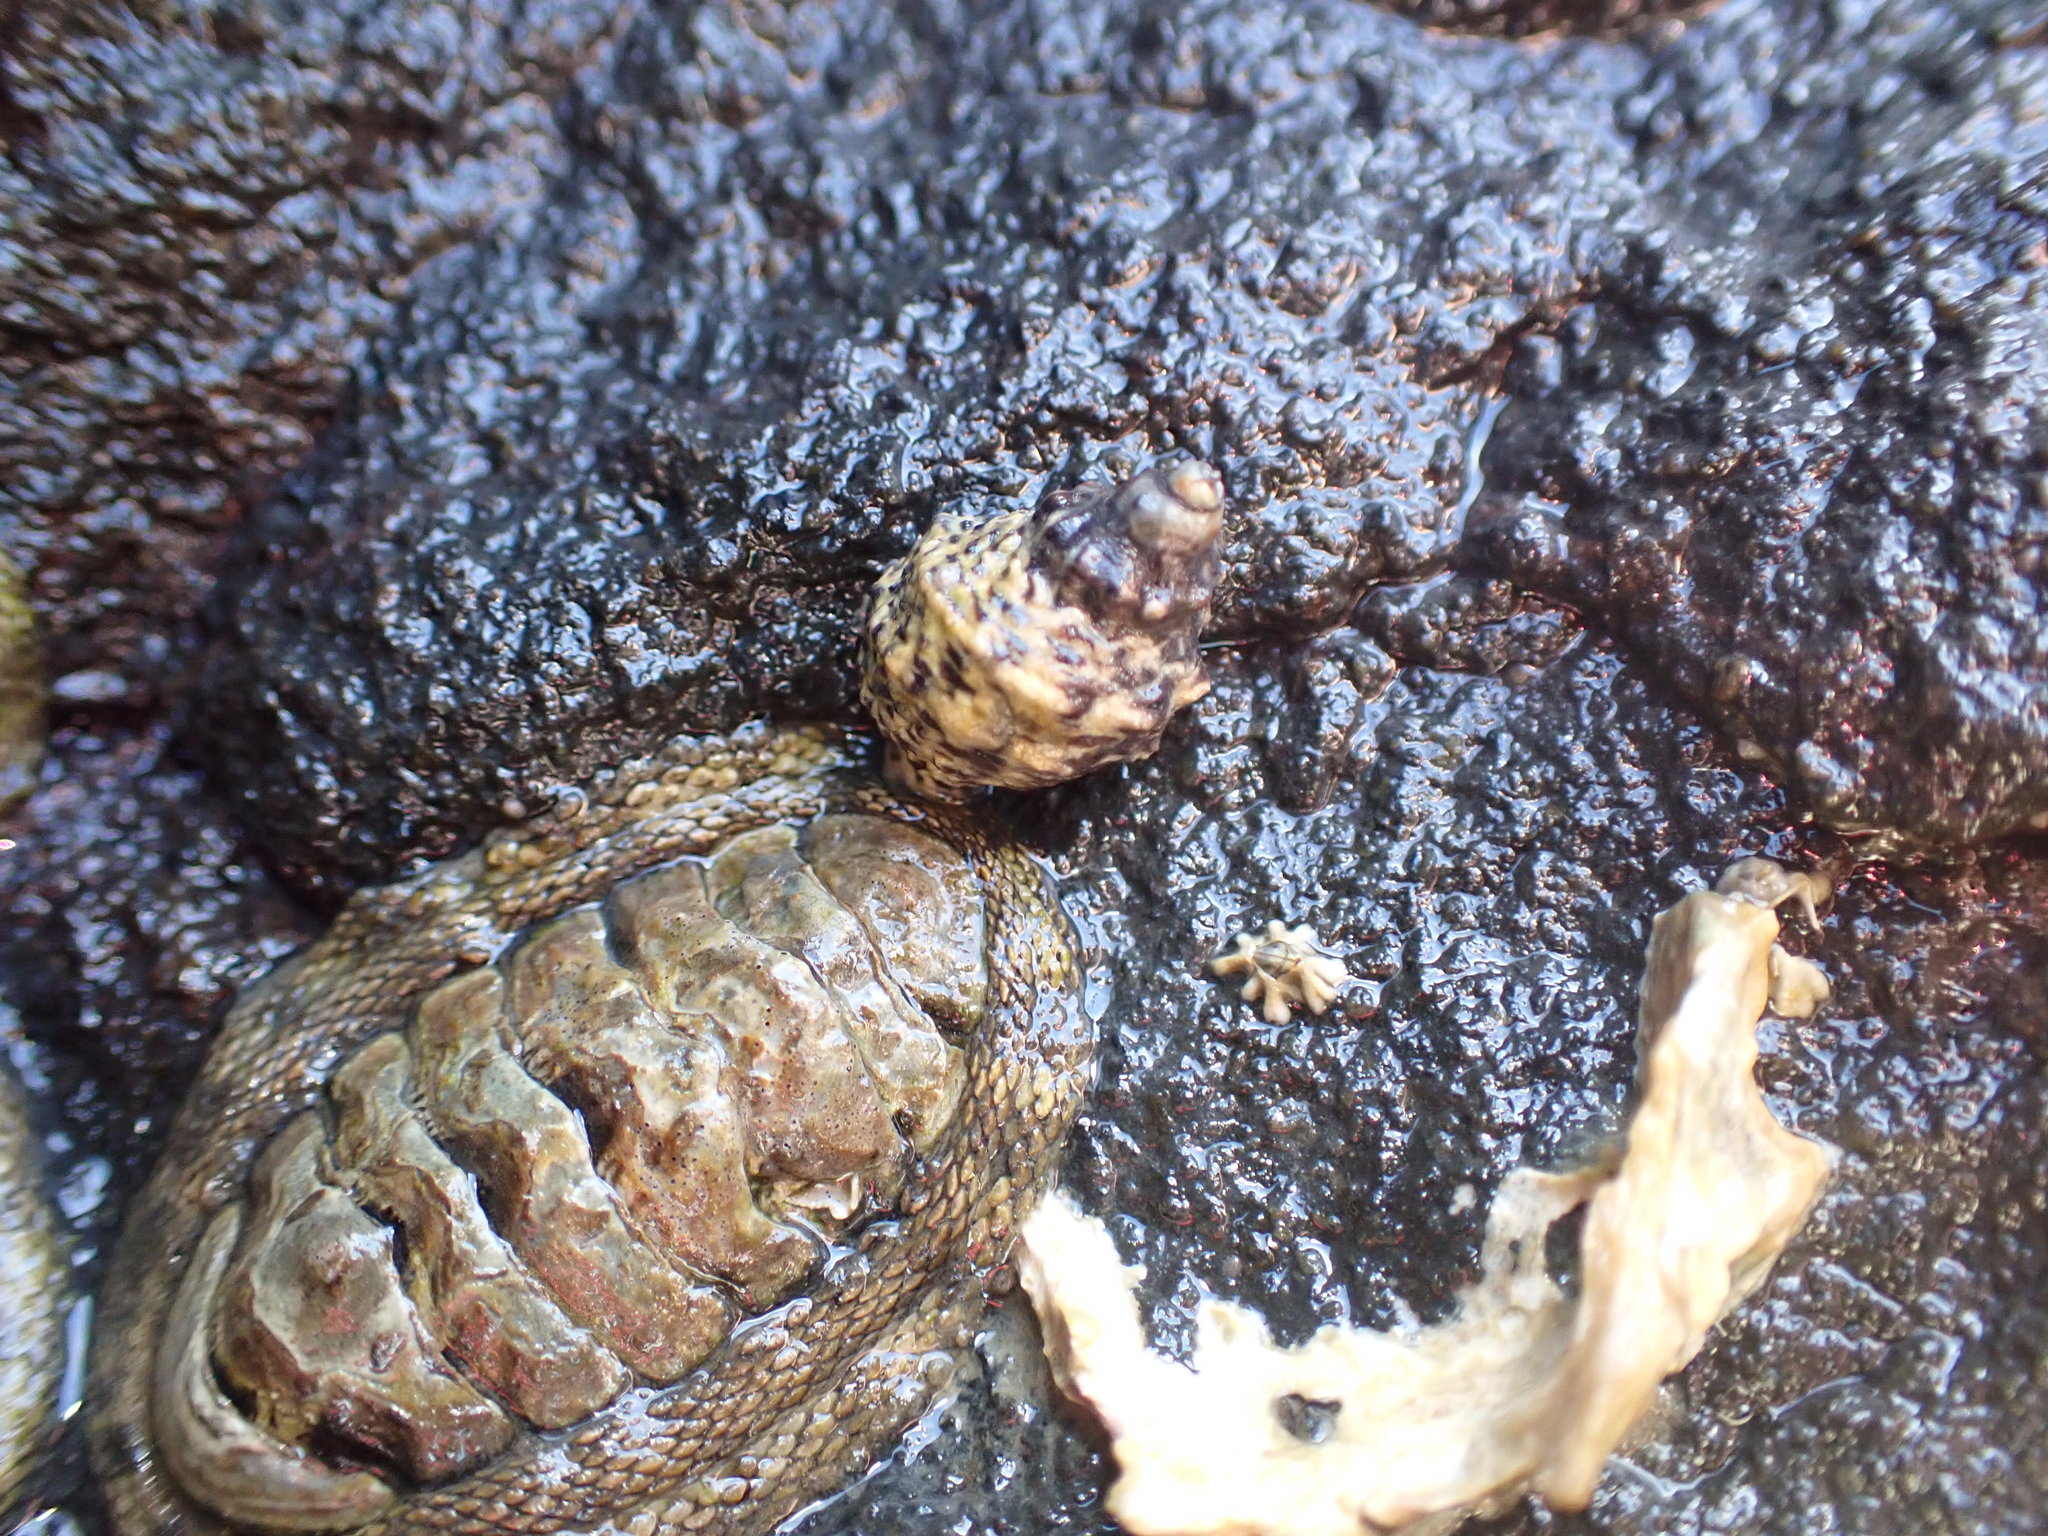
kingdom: Animalia
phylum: Mollusca
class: Gastropoda
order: Neogastropoda
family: Muricidae
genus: Haustrum
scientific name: Haustrum scobina
